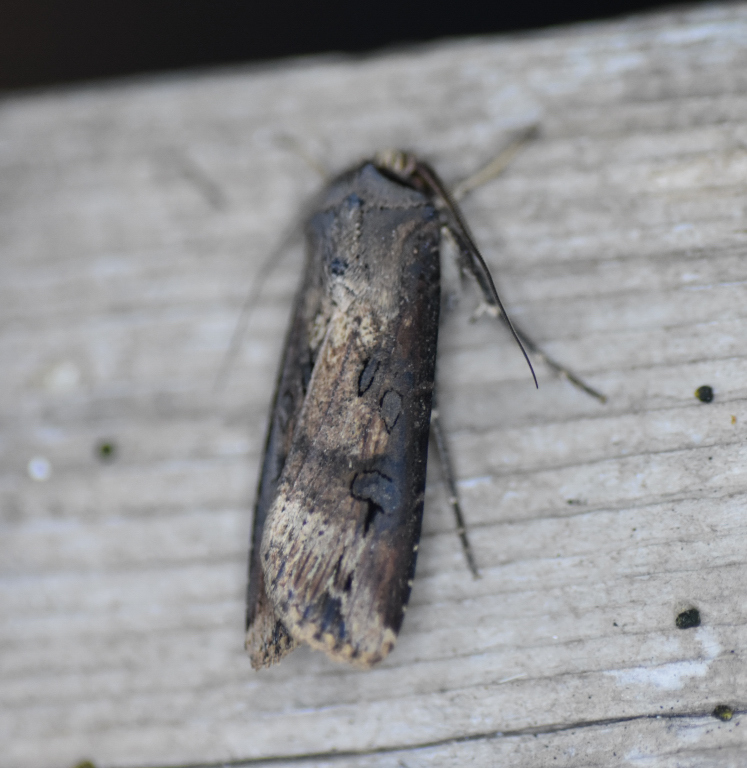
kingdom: Animalia
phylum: Arthropoda
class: Insecta
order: Lepidoptera
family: Noctuidae
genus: Agrotis
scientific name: Agrotis ipsilon
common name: Dark sword-grass
